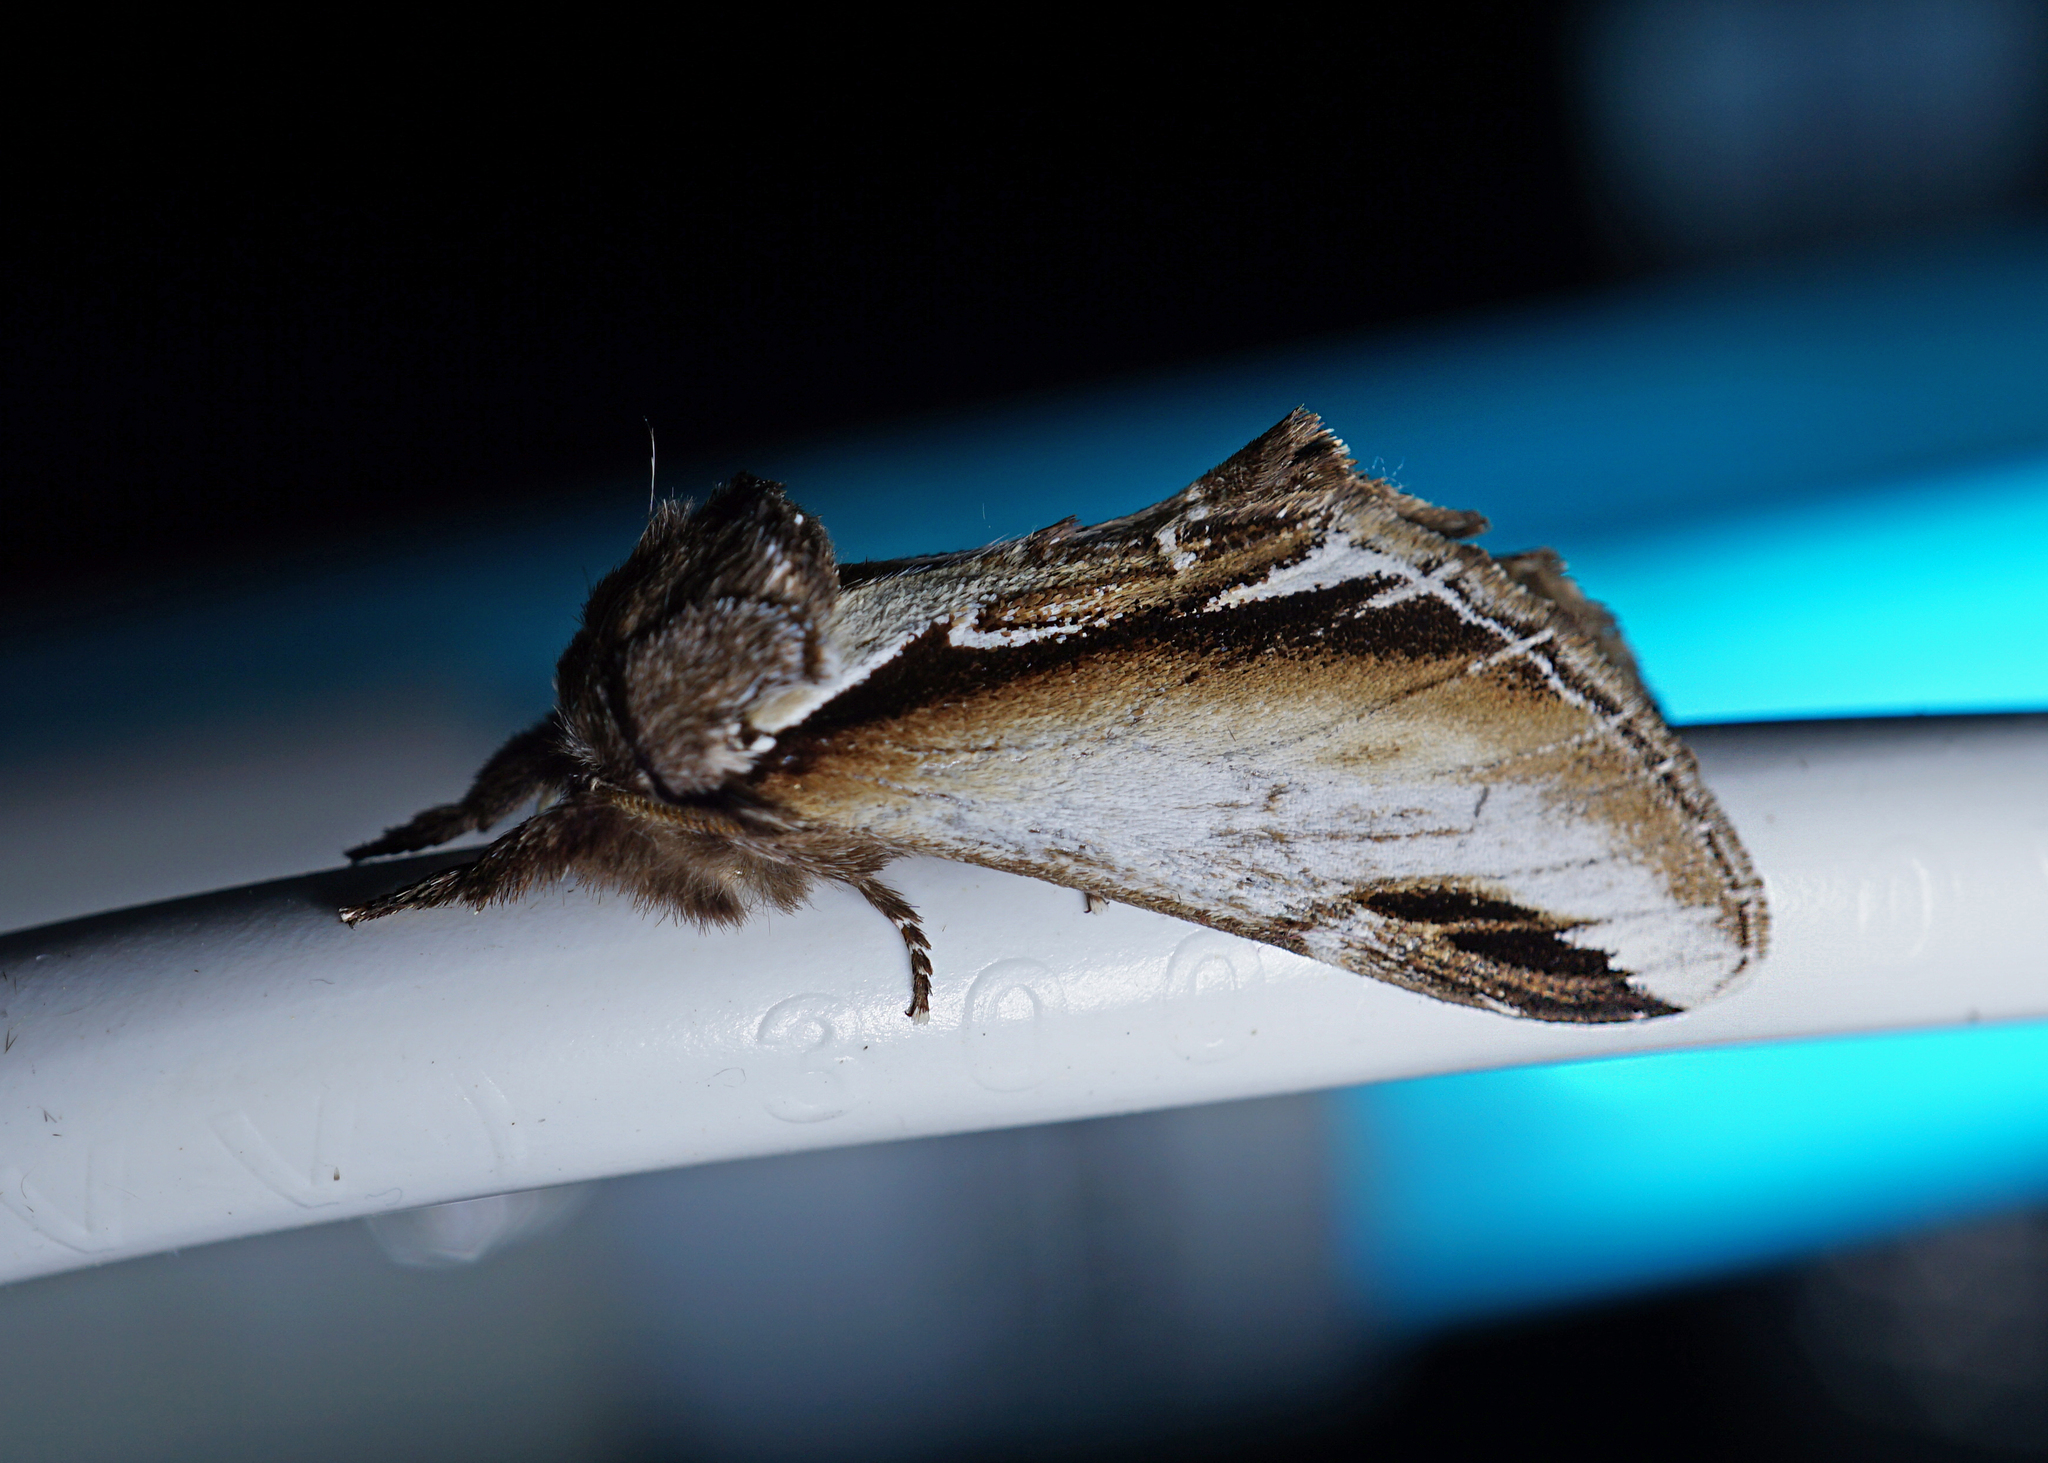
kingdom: Animalia
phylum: Arthropoda
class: Insecta
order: Lepidoptera
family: Notodontidae
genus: Pheosia
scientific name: Pheosia gnoma
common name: Lesser swallow prominent
